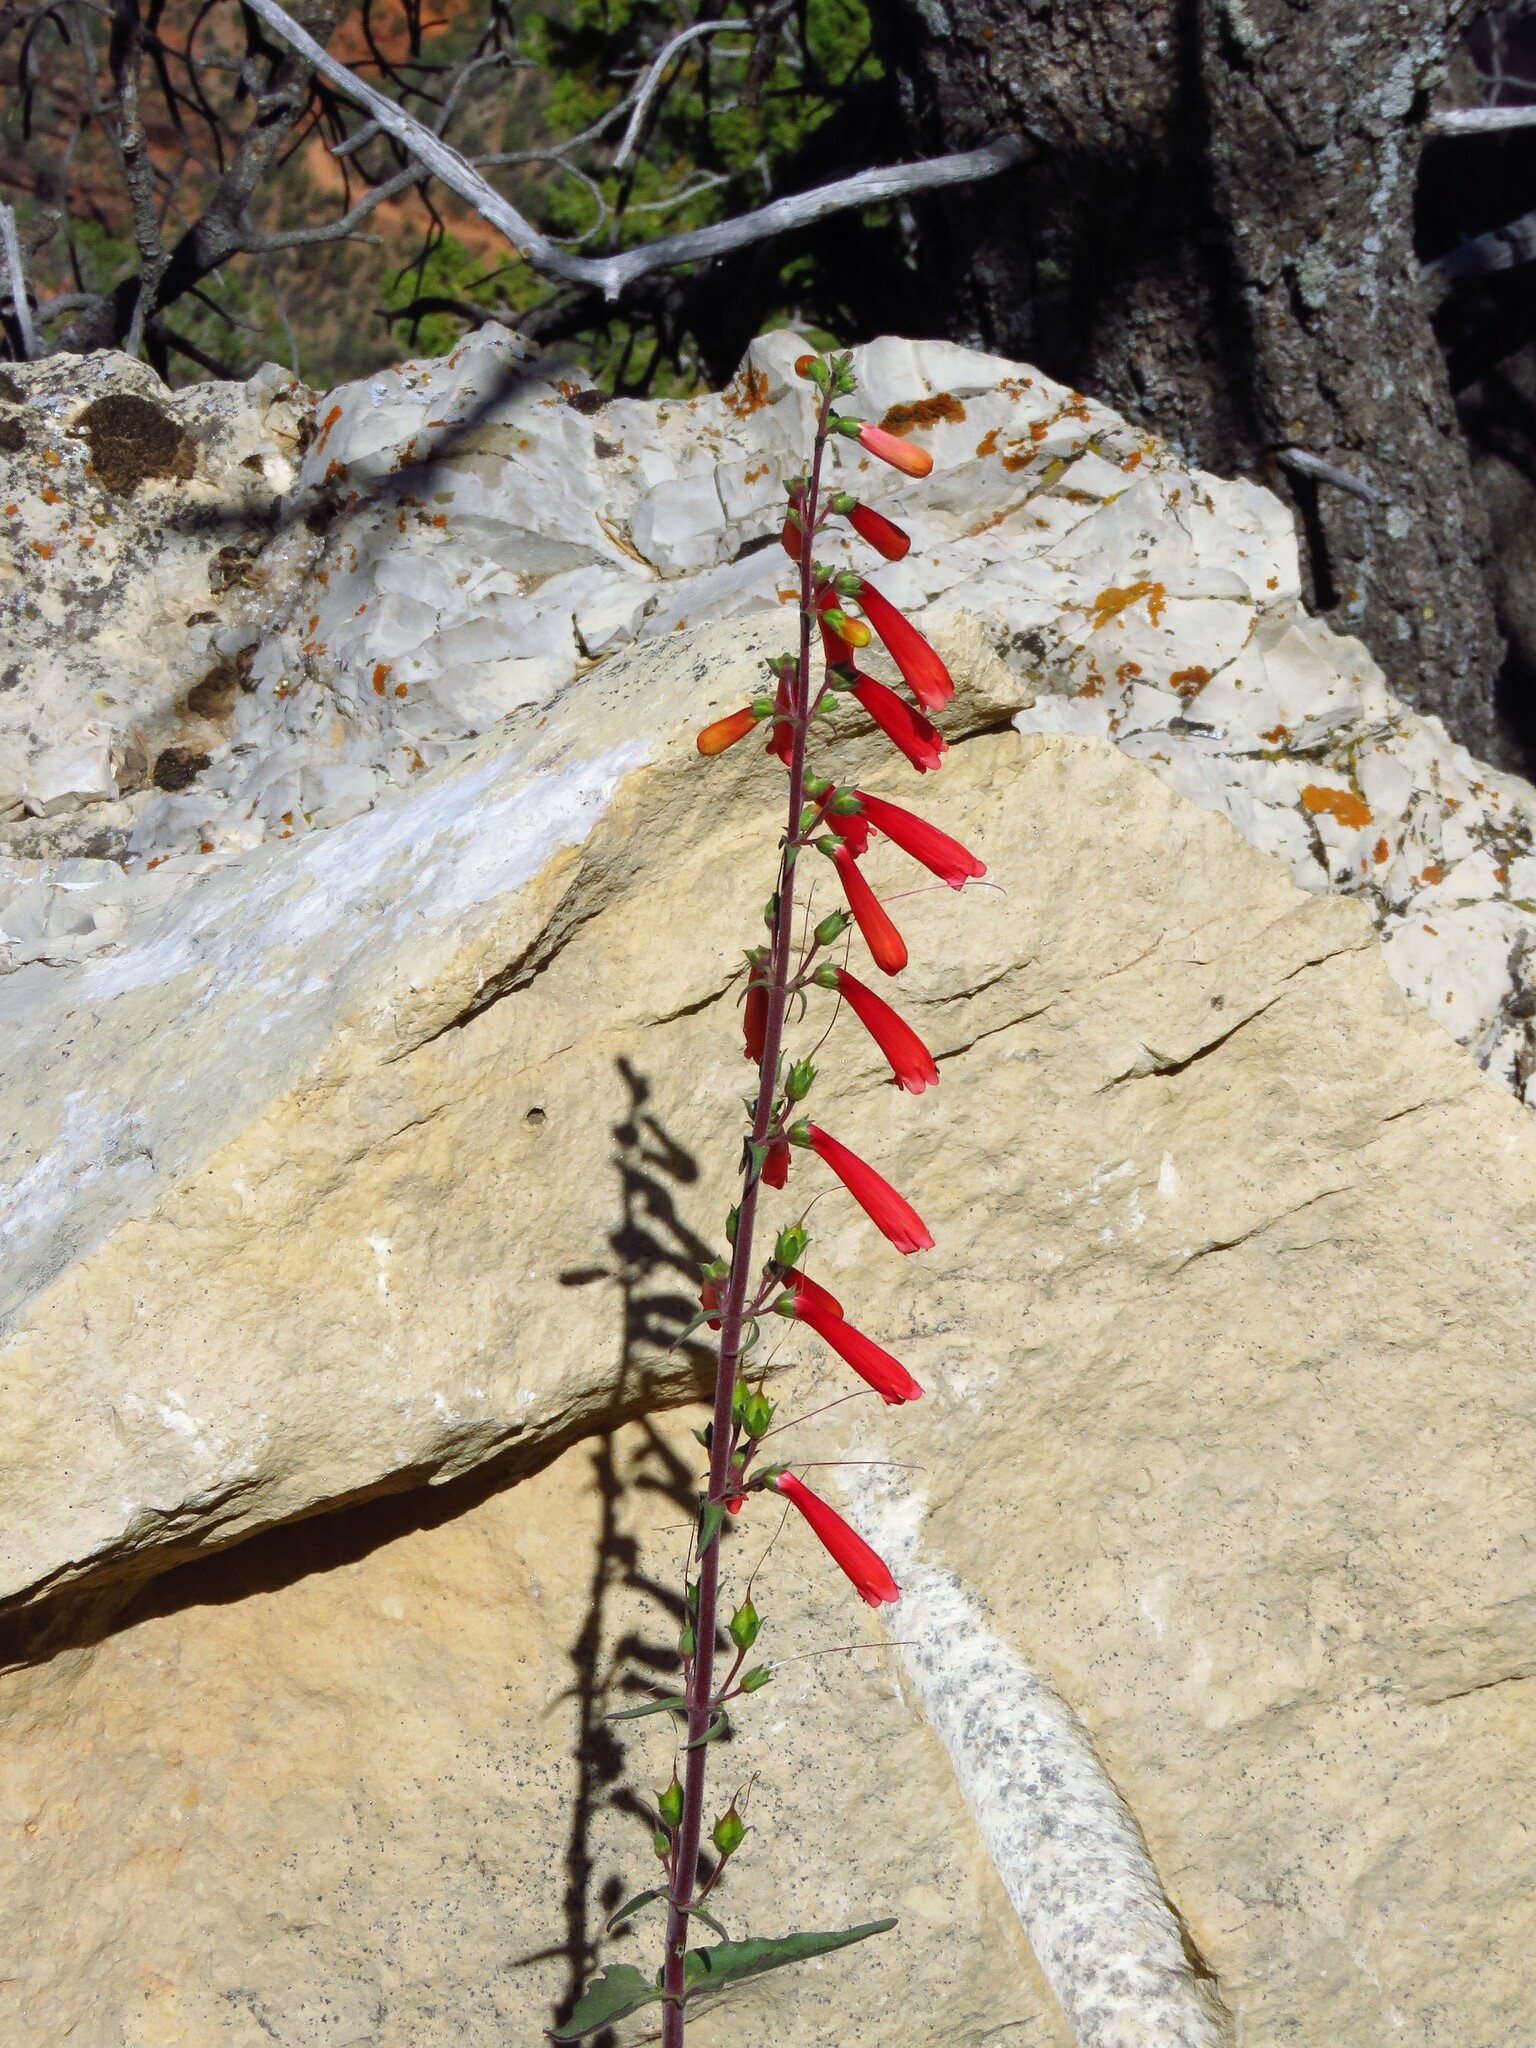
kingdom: Plantae
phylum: Tracheophyta
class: Magnoliopsida
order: Lamiales
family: Plantaginaceae
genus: Penstemon
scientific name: Penstemon eatonii
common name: Eaton's penstemon
